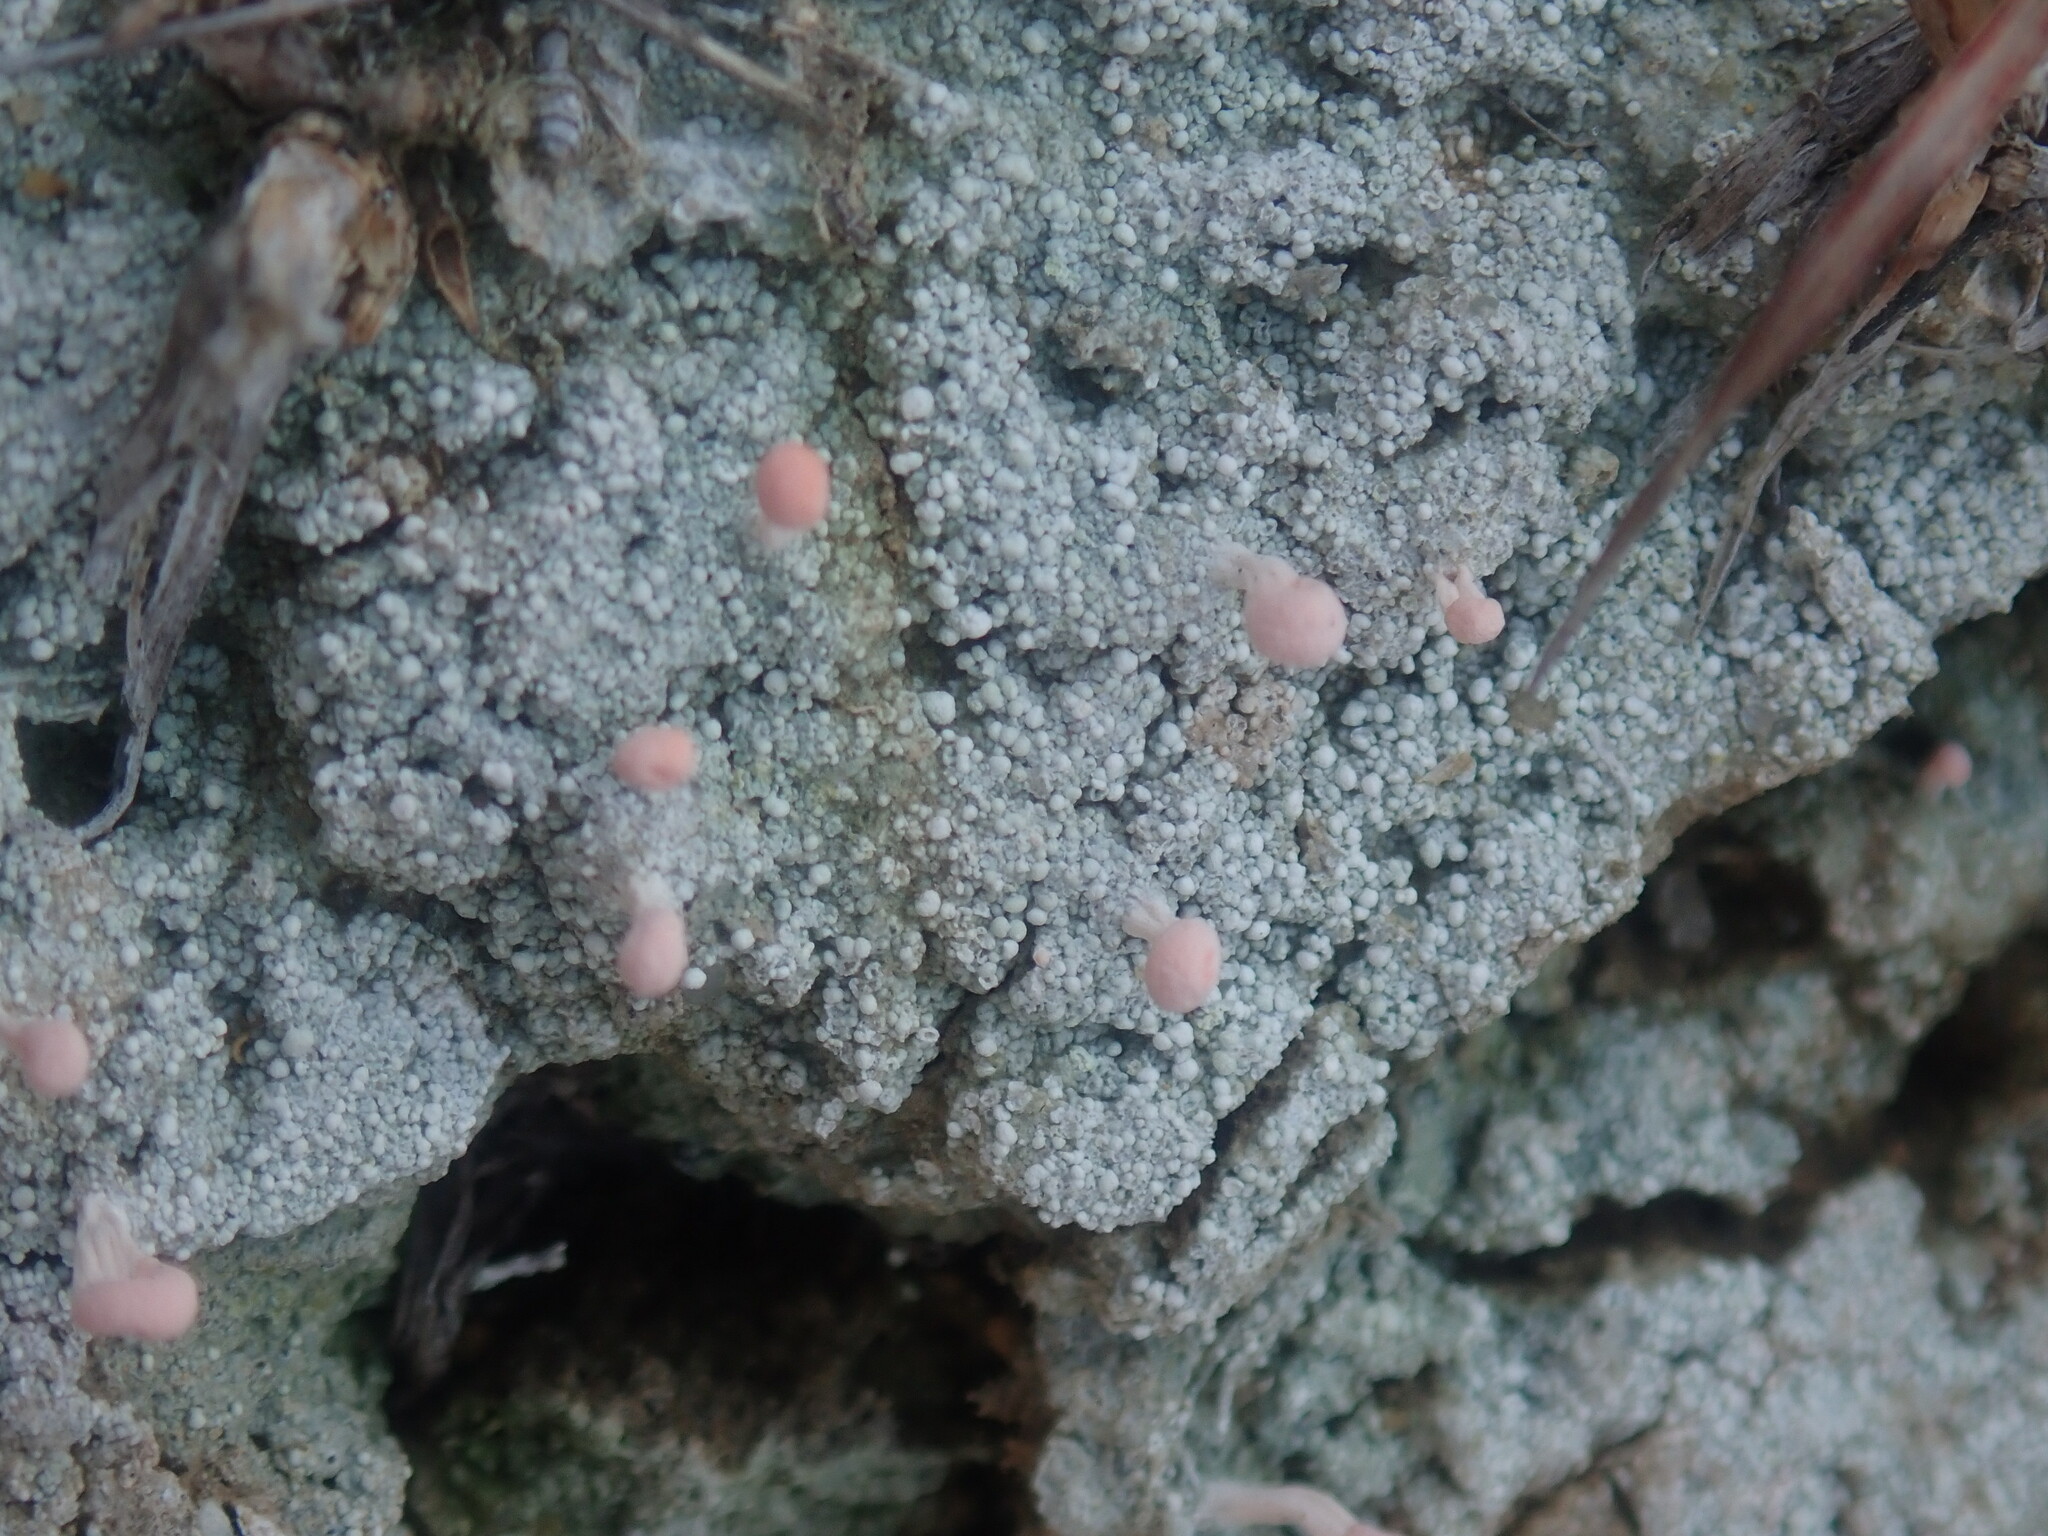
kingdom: Fungi
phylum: Ascomycota
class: Lecanoromycetes
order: Pertusariales
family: Icmadophilaceae
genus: Dibaeis
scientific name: Dibaeis baeomyces
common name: Pink earth lichen
